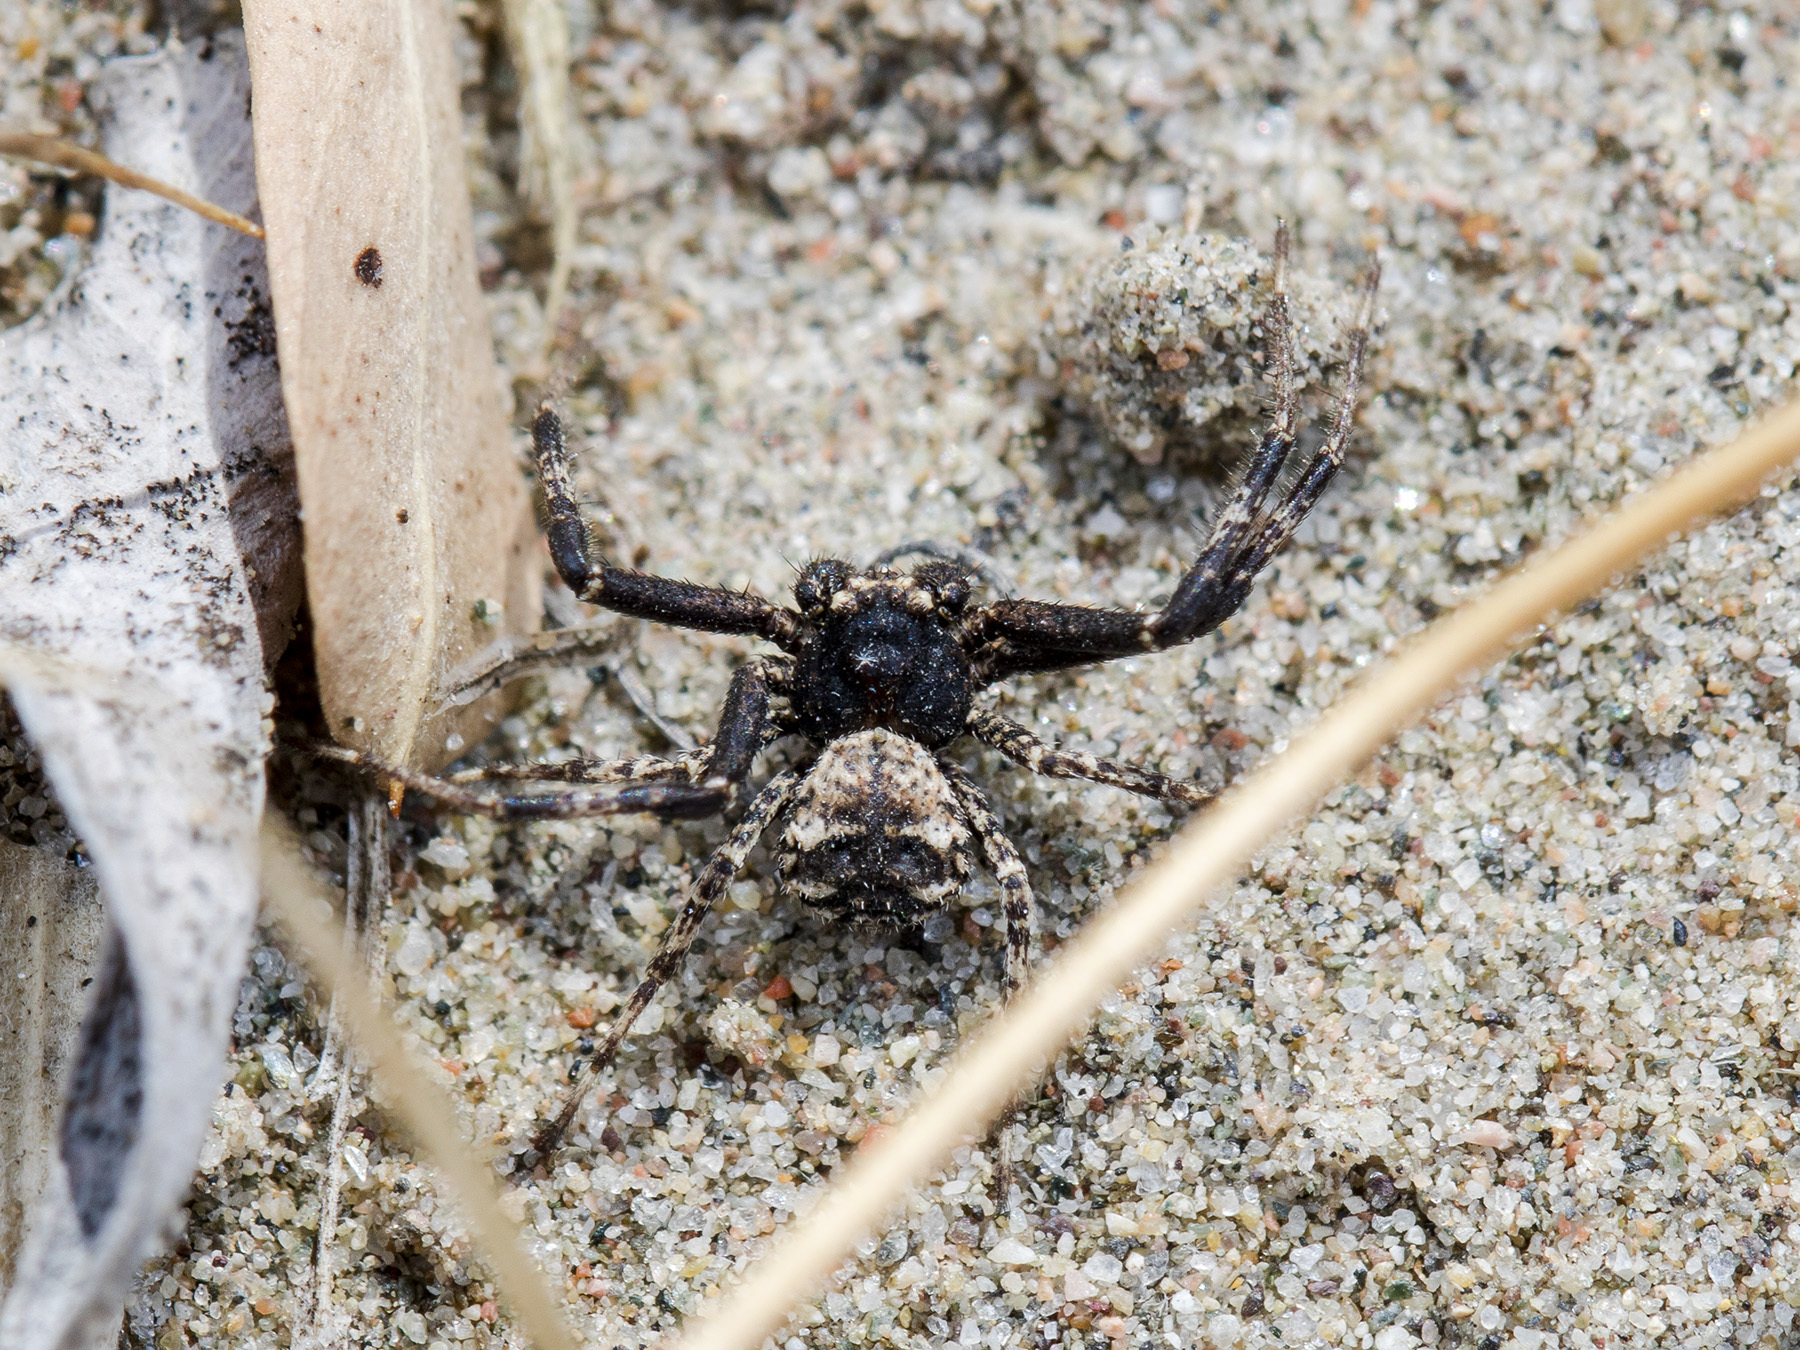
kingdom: Animalia
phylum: Arthropoda
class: Arachnida
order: Araneae
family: Thomisidae
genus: Ozyptila
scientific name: Ozyptila lugubris
